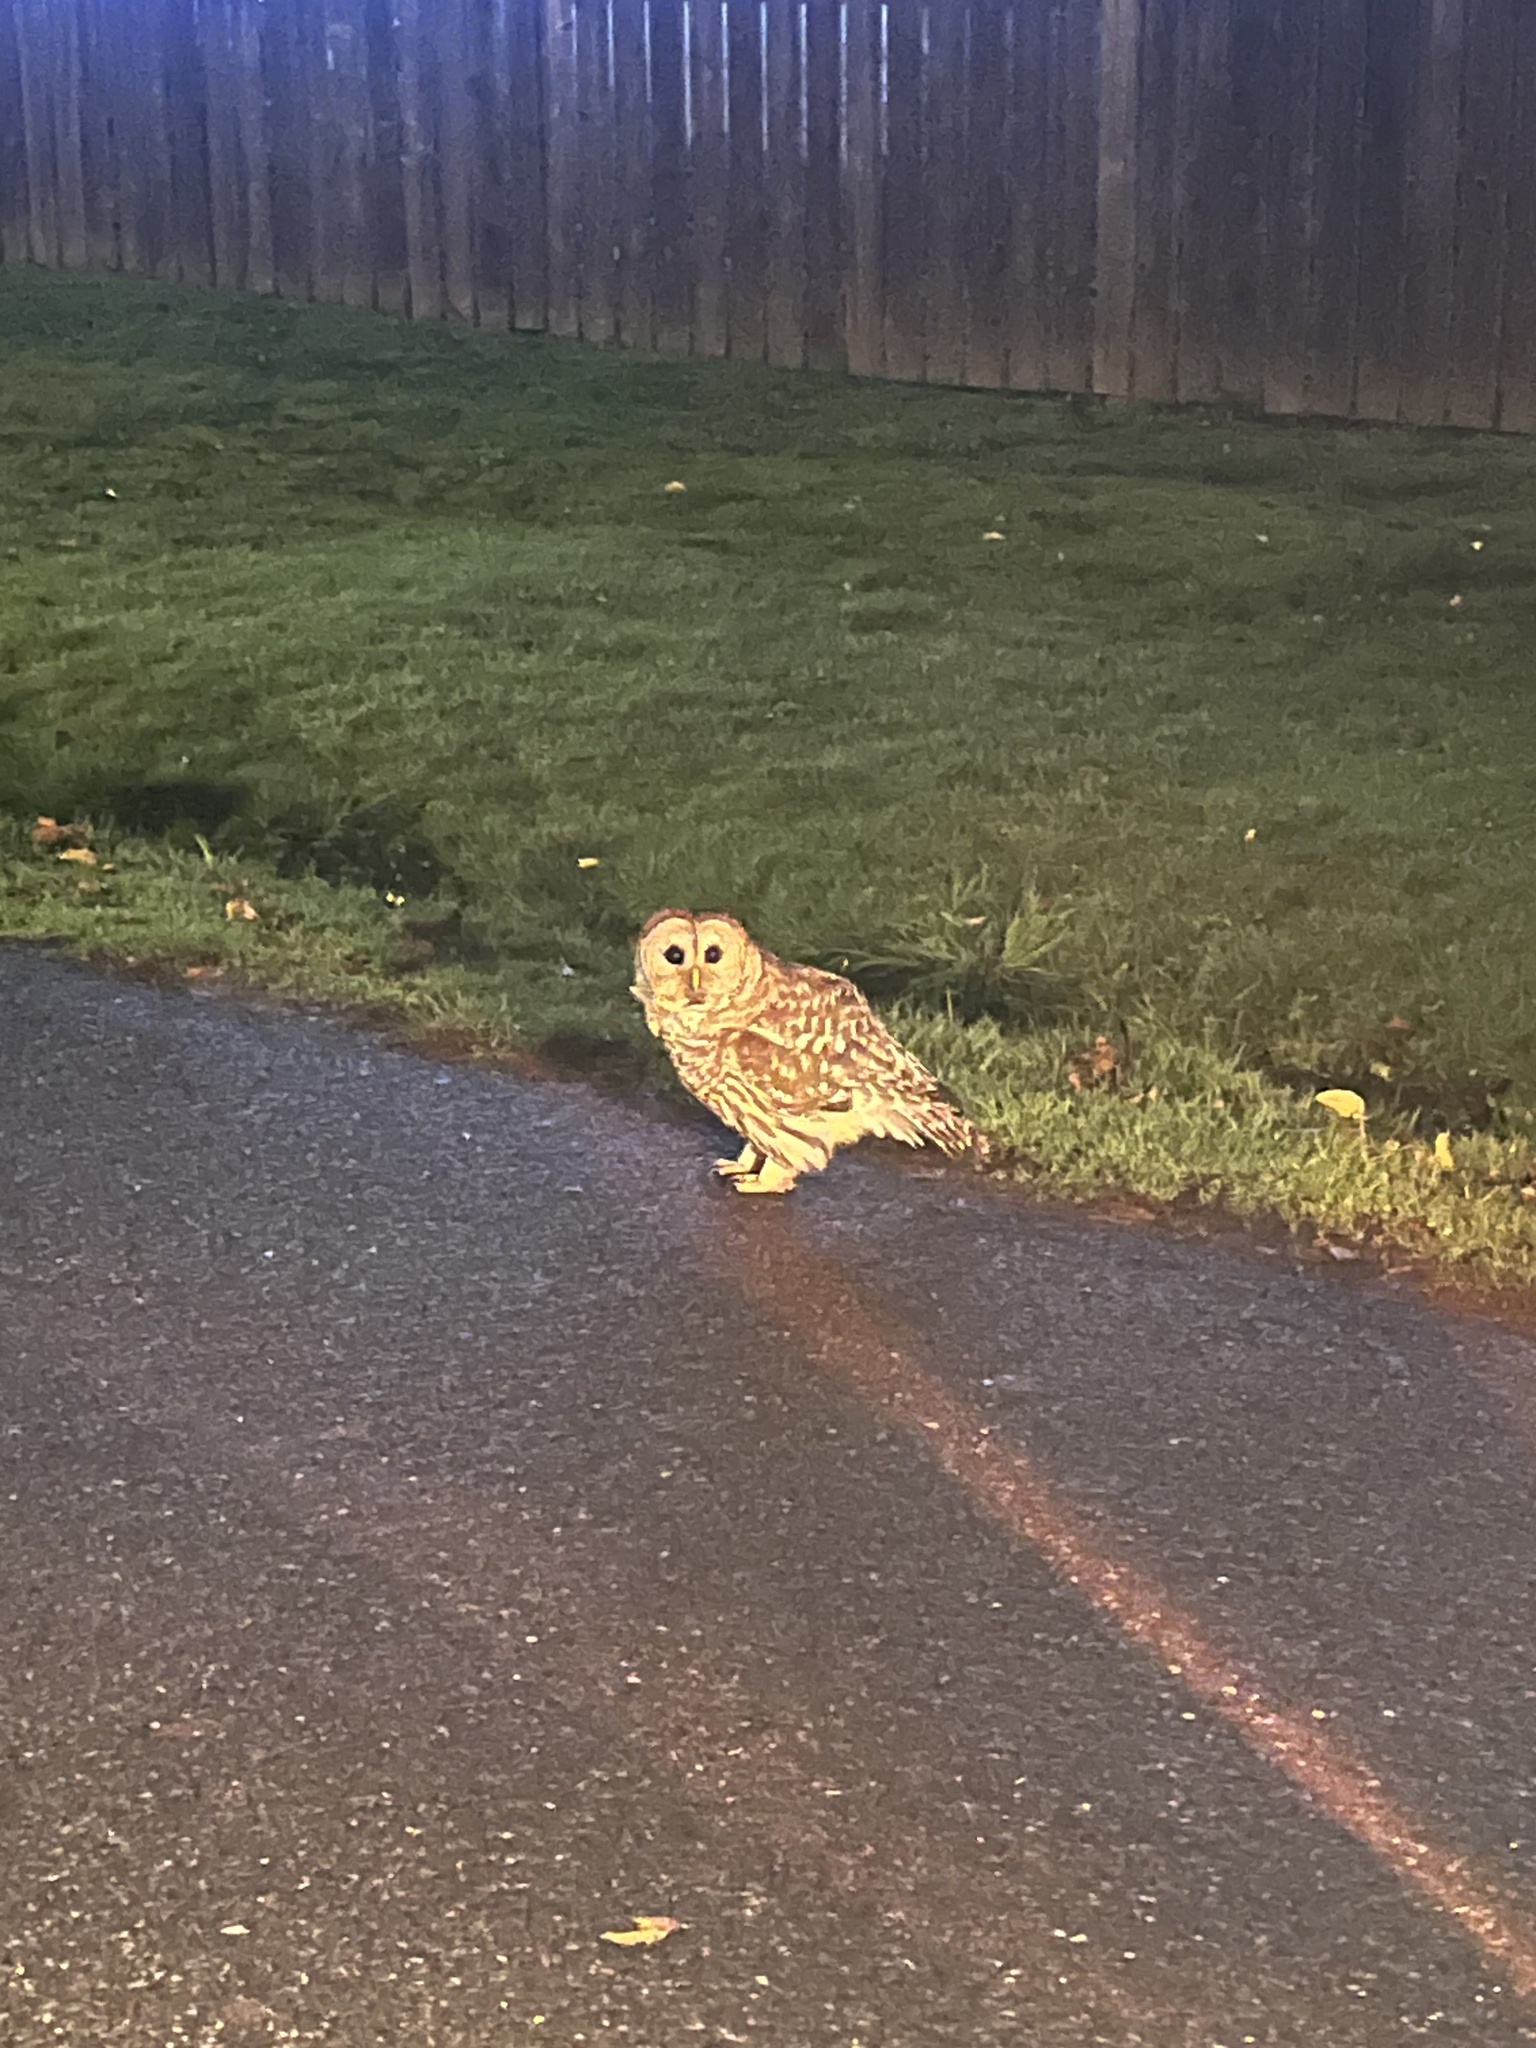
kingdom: Animalia
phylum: Chordata
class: Aves
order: Strigiformes
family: Strigidae
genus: Strix
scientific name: Strix varia
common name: Barred owl
